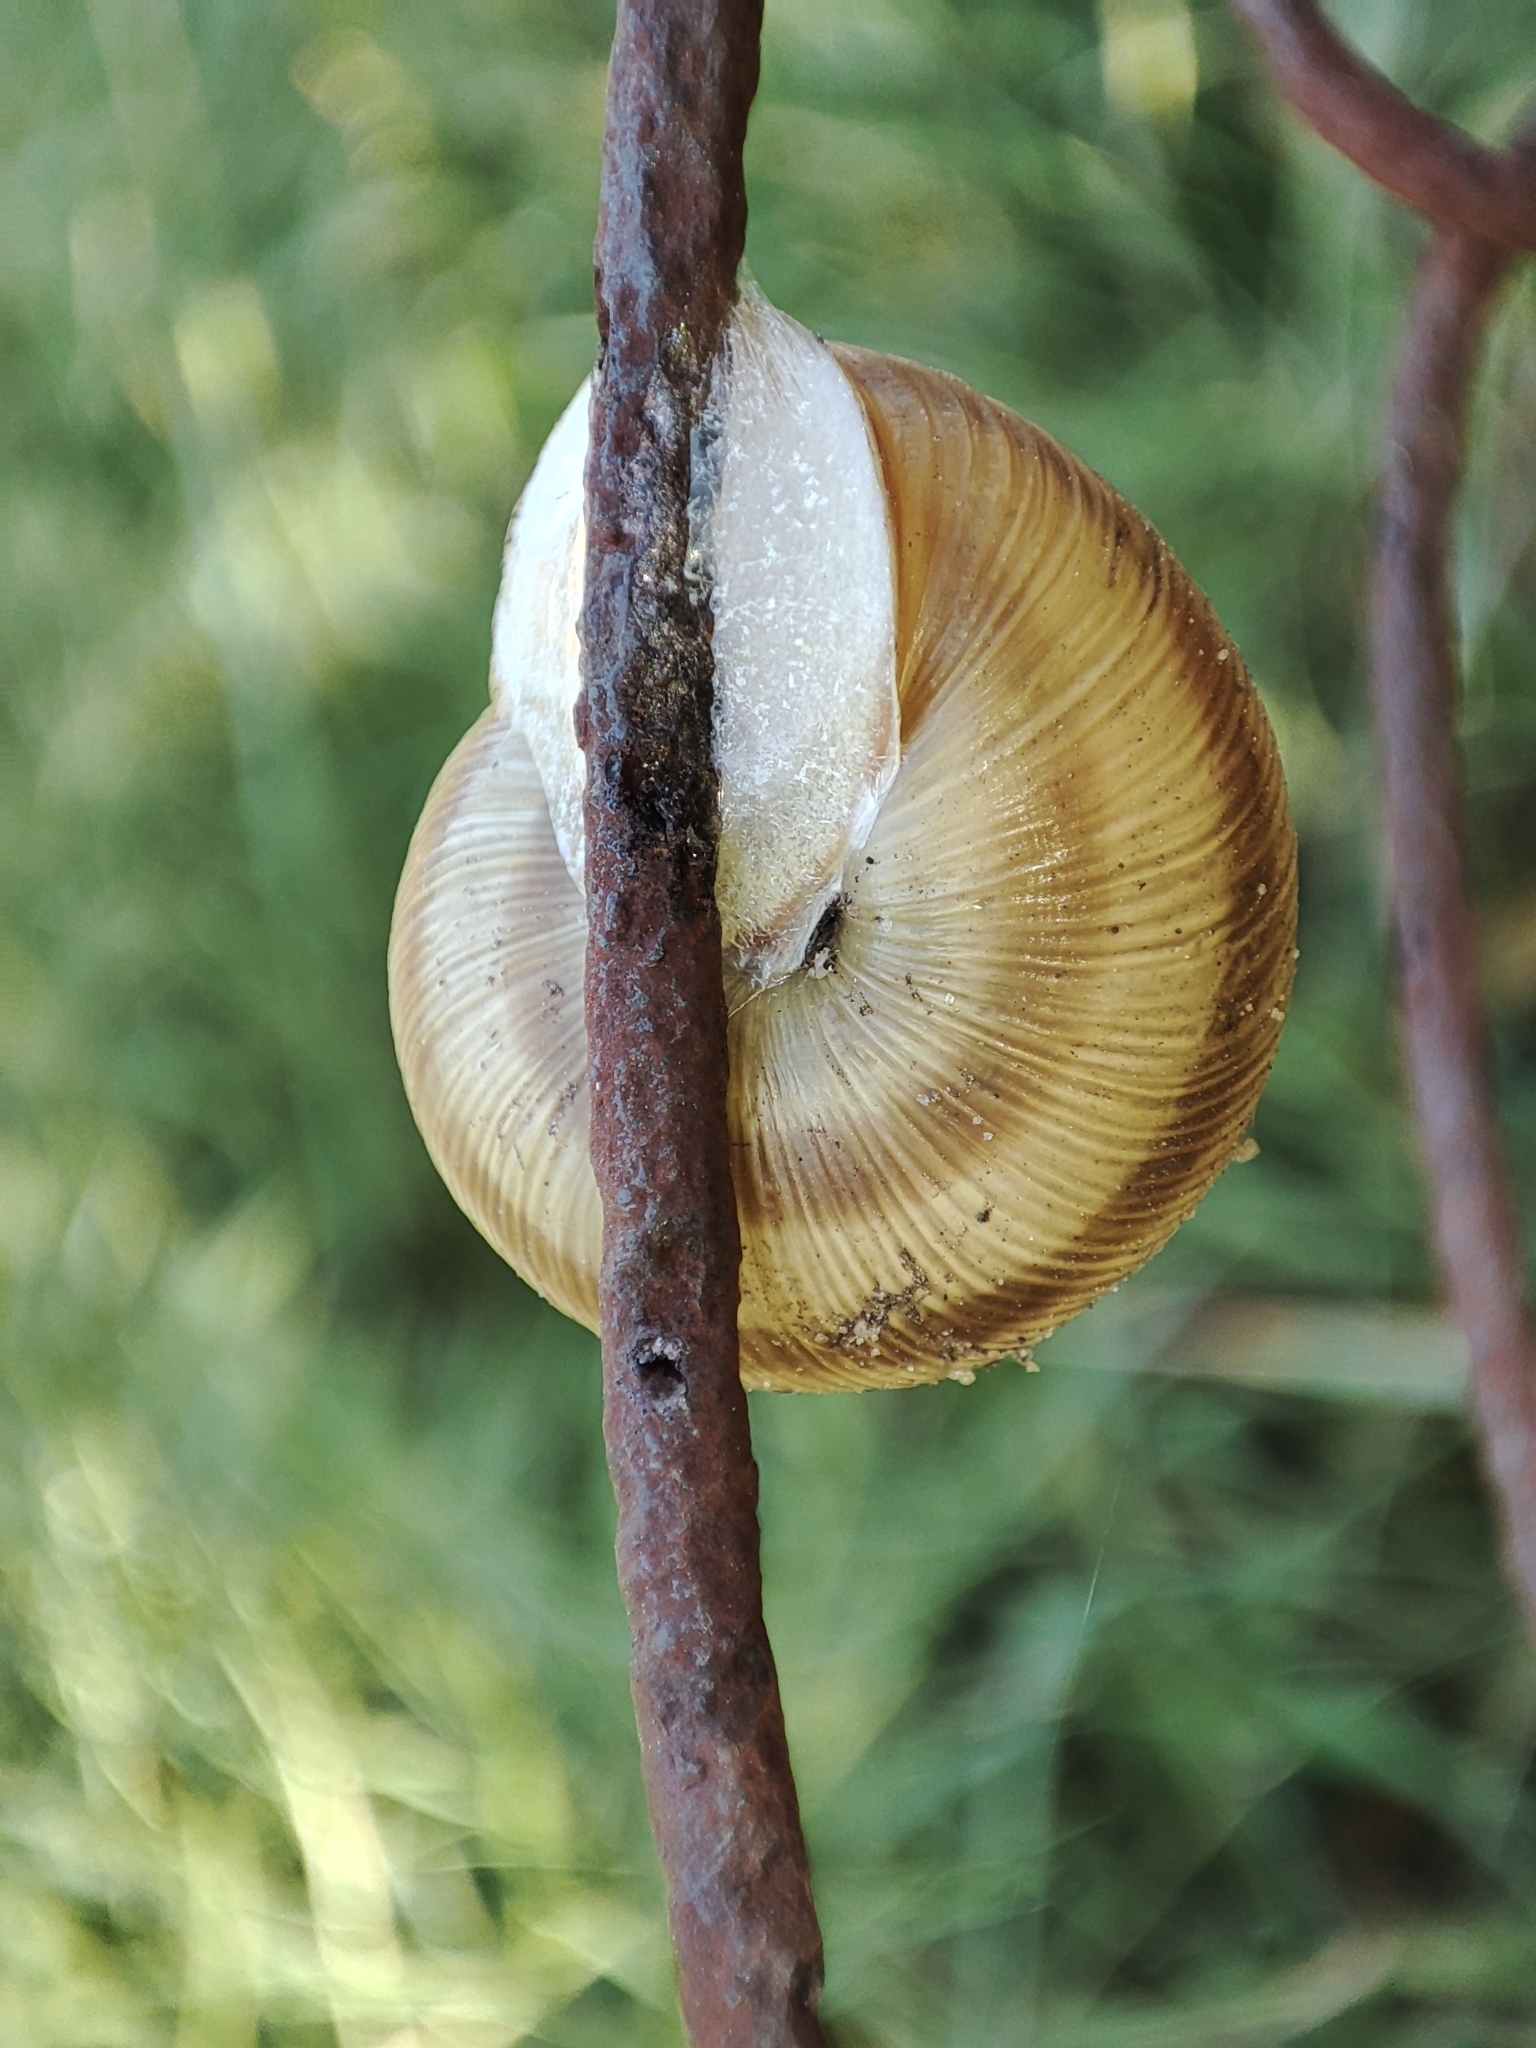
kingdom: Animalia
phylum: Mollusca
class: Gastropoda
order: Stylommatophora
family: Helicidae
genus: Caucasotachea
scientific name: Caucasotachea vindobonensis
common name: European helicid land snail
